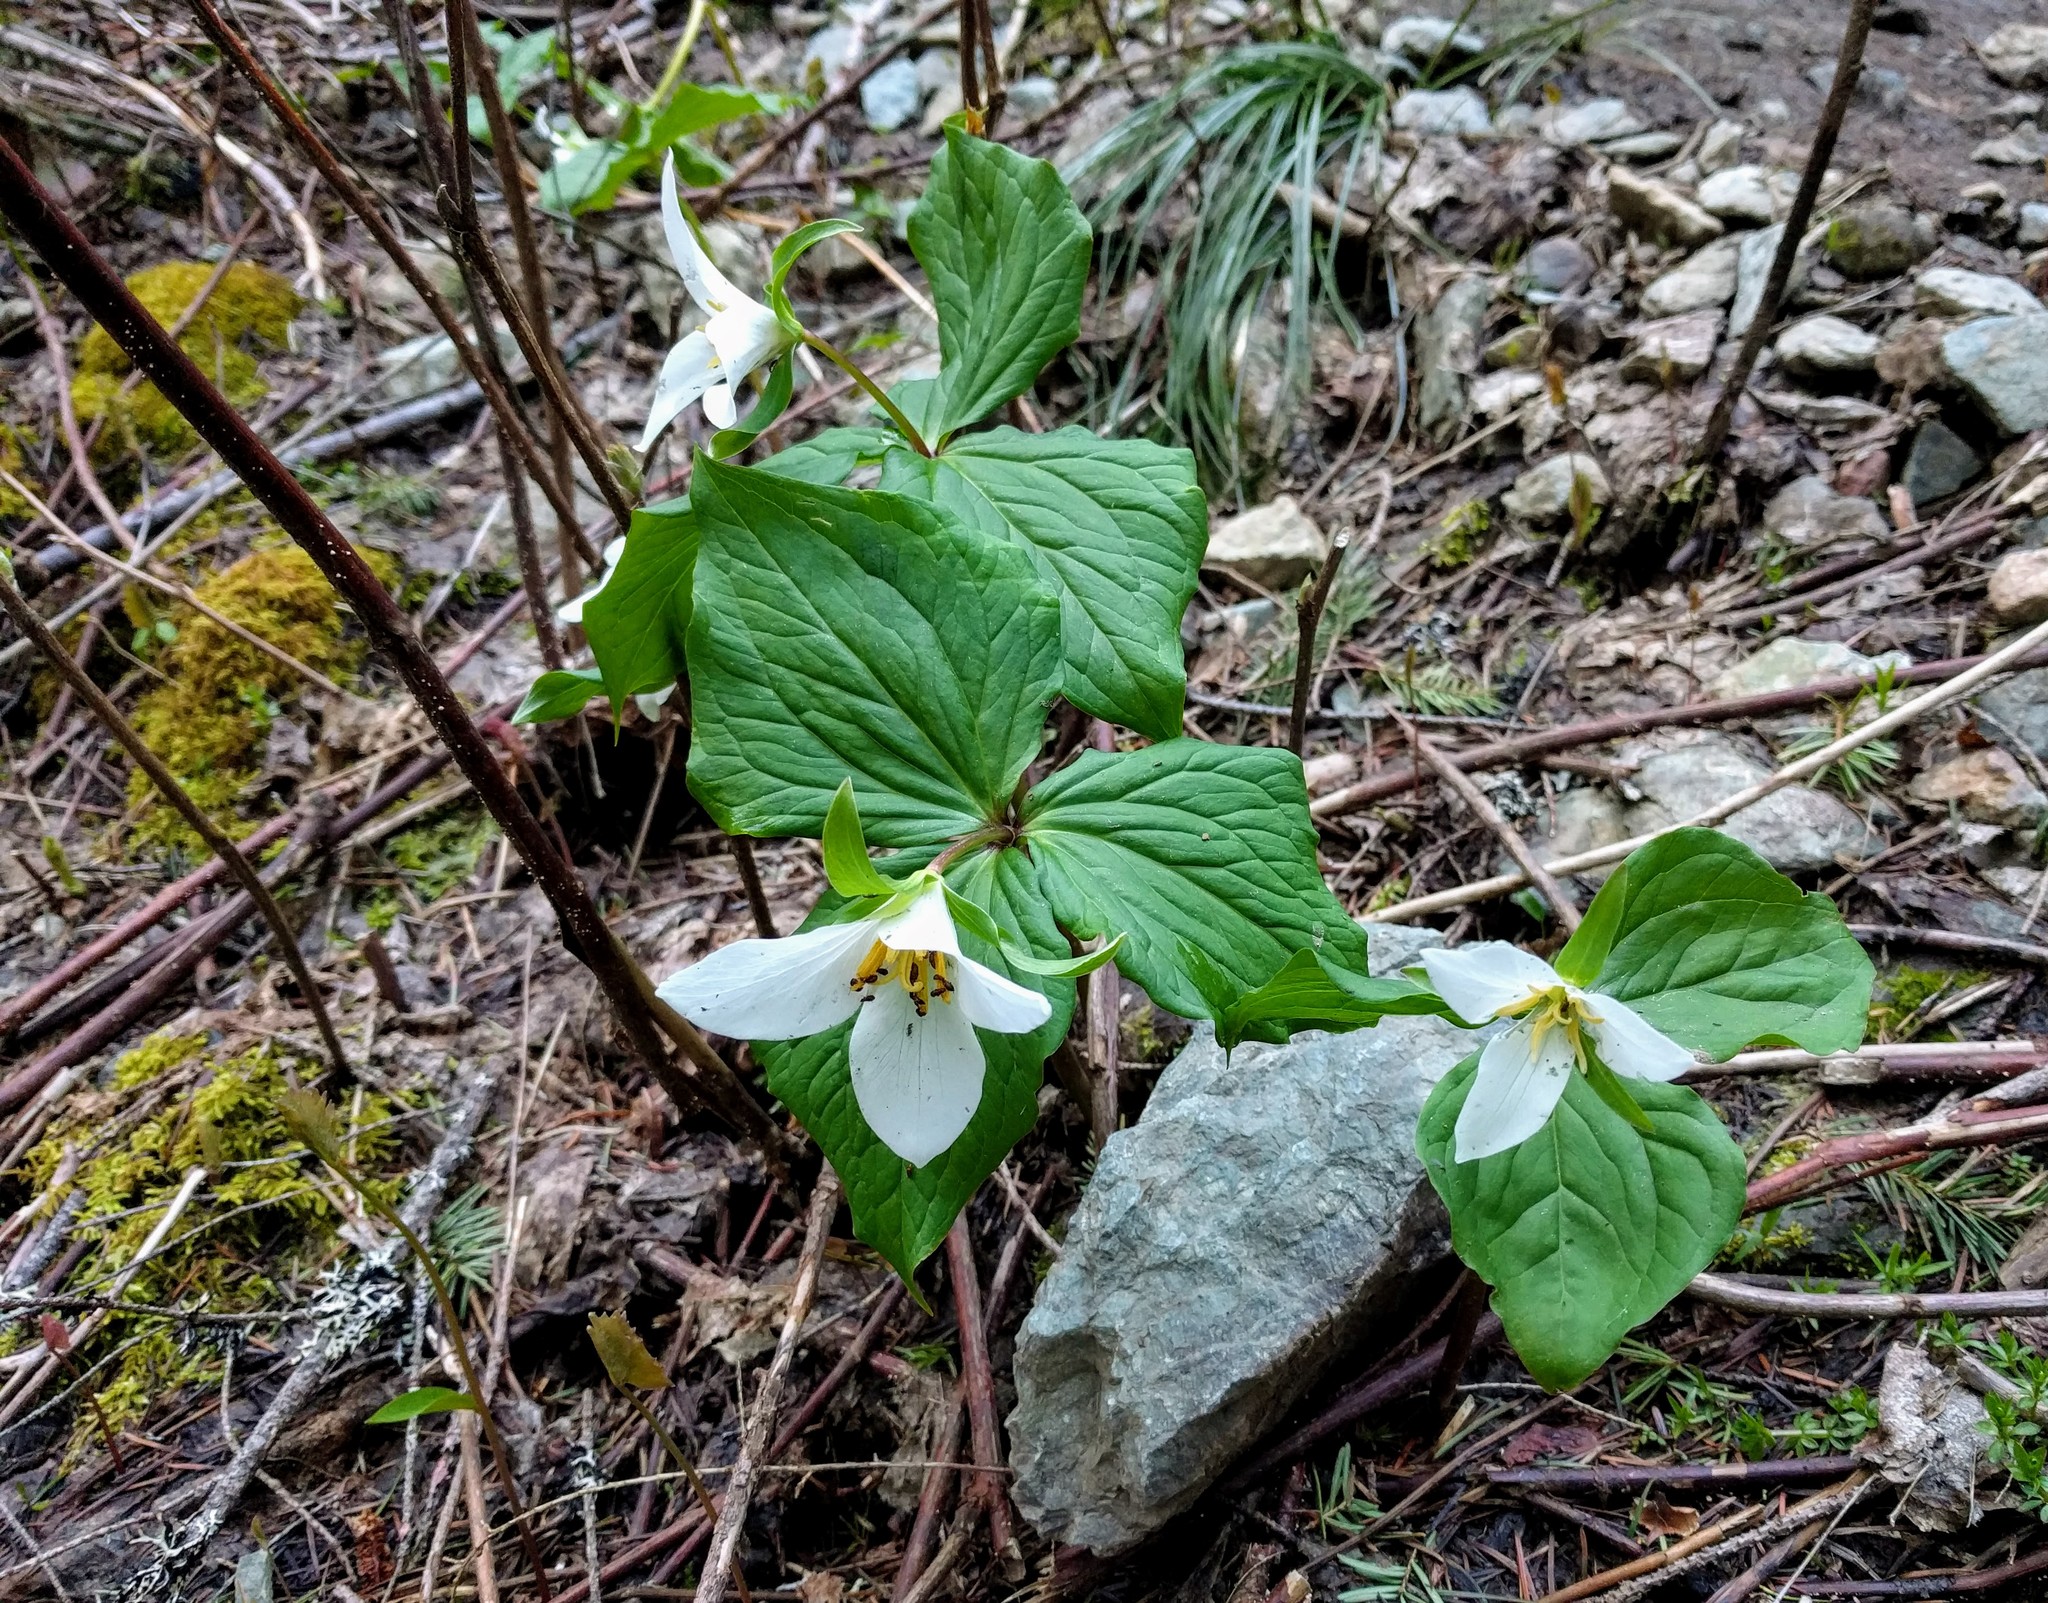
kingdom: Plantae
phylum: Tracheophyta
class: Liliopsida
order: Liliales
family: Melanthiaceae
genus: Trillium
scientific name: Trillium ovatum
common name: Pacific trillium
